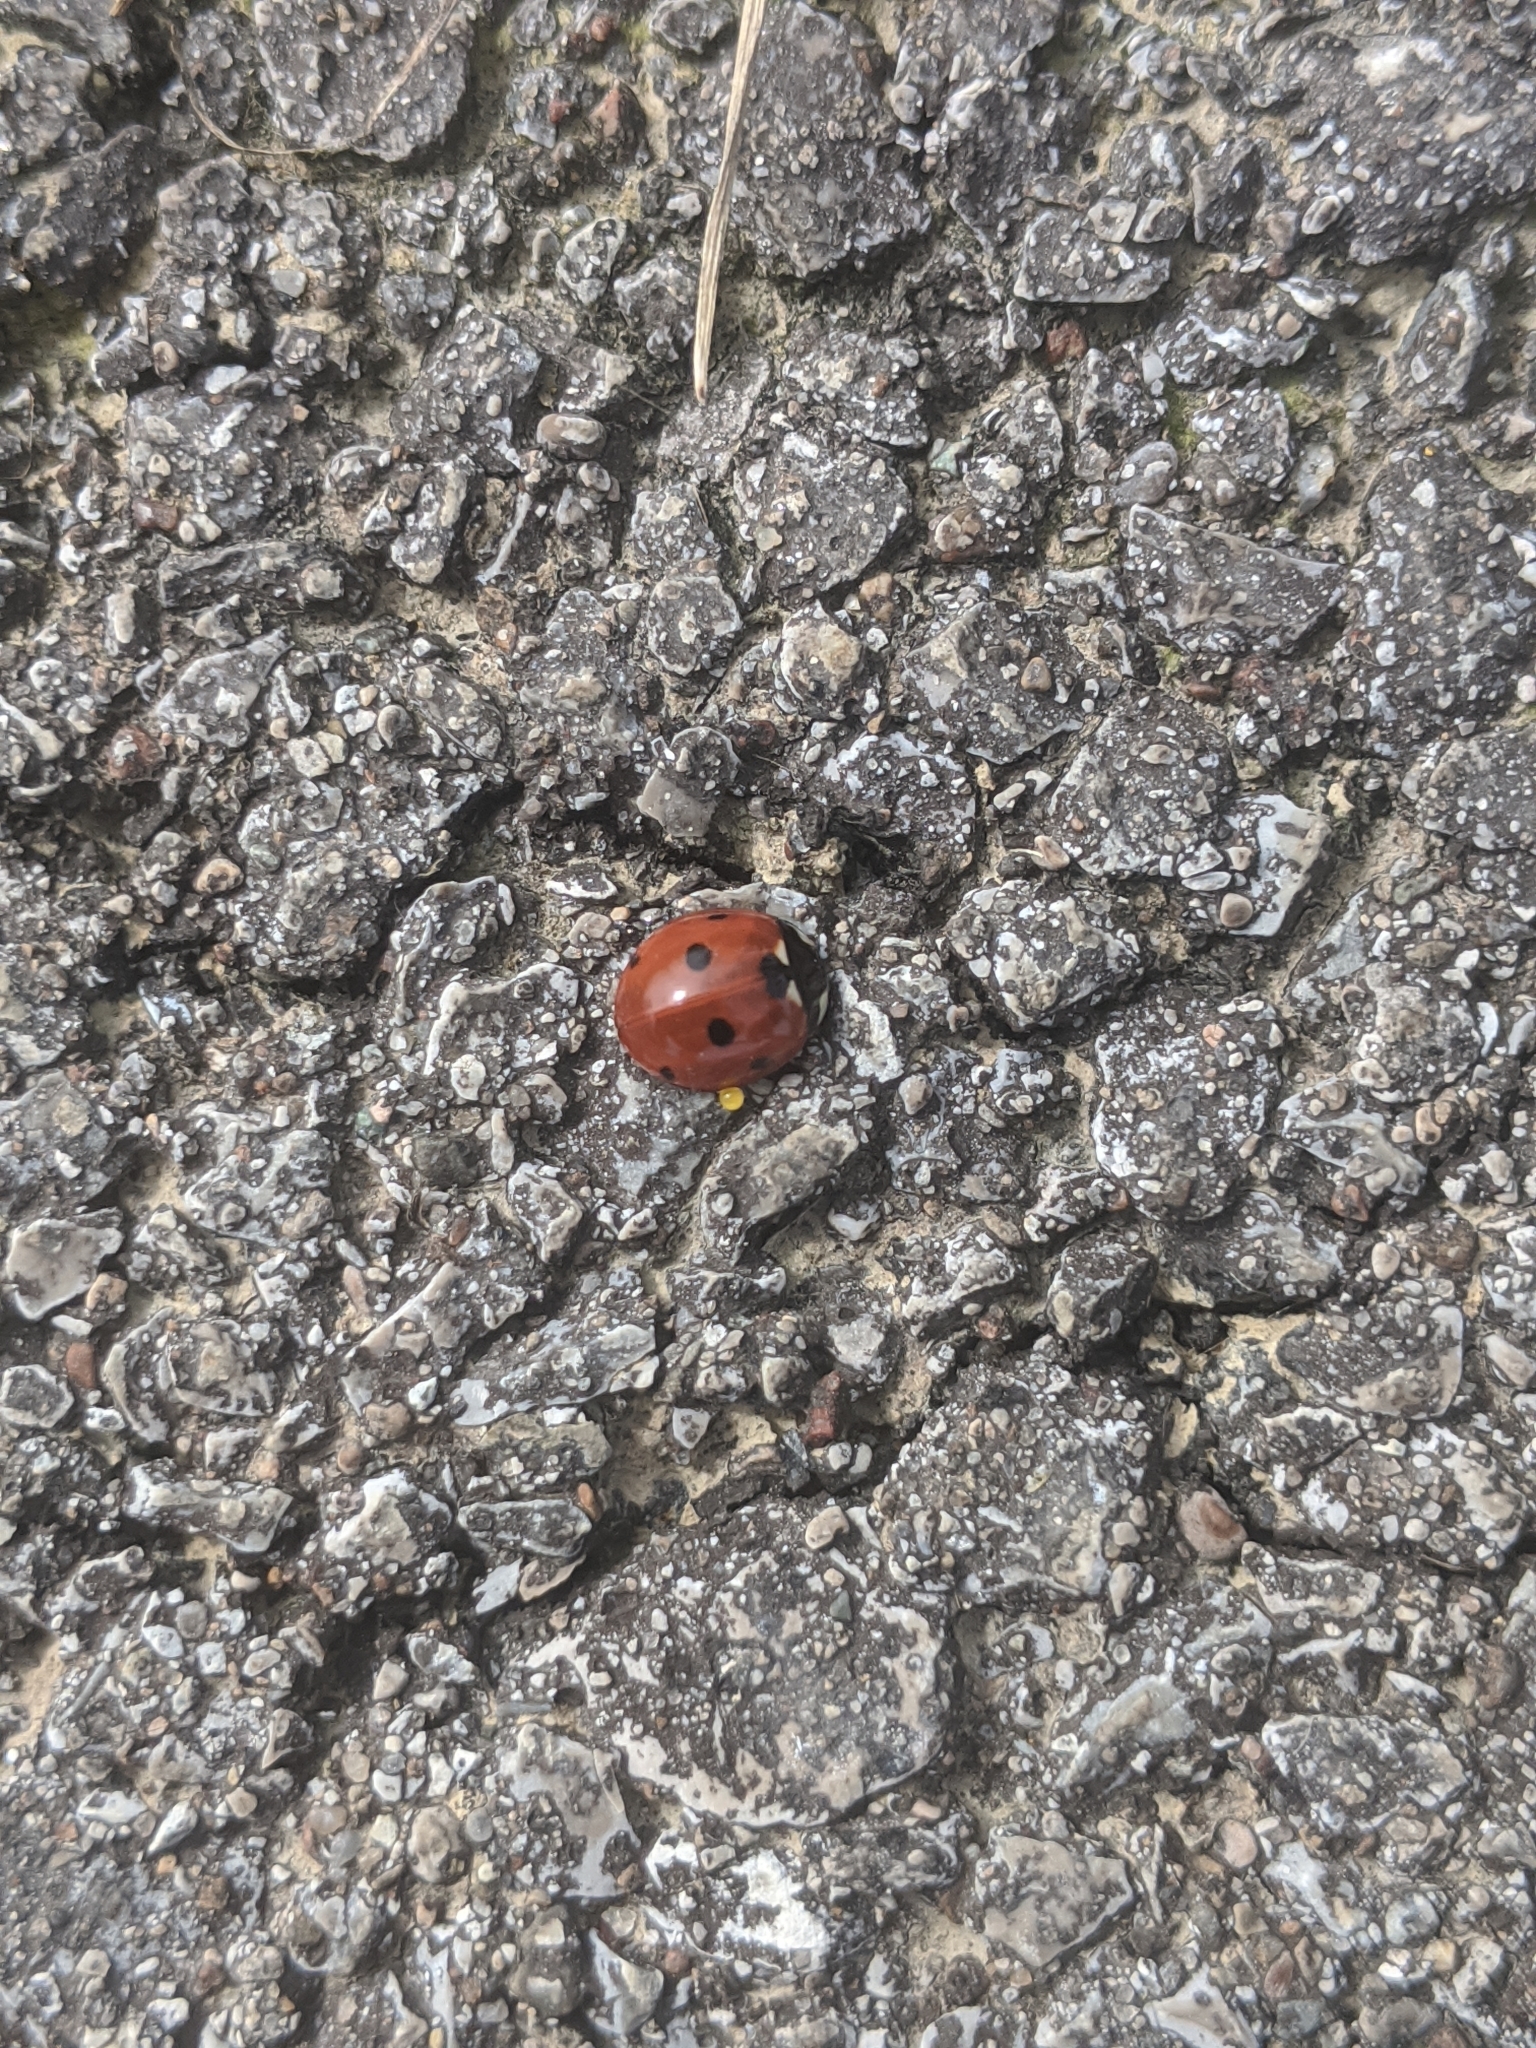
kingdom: Animalia
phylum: Arthropoda
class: Insecta
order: Coleoptera
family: Coccinellidae
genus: Coccinella
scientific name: Coccinella septempunctata
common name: Sevenspotted lady beetle
